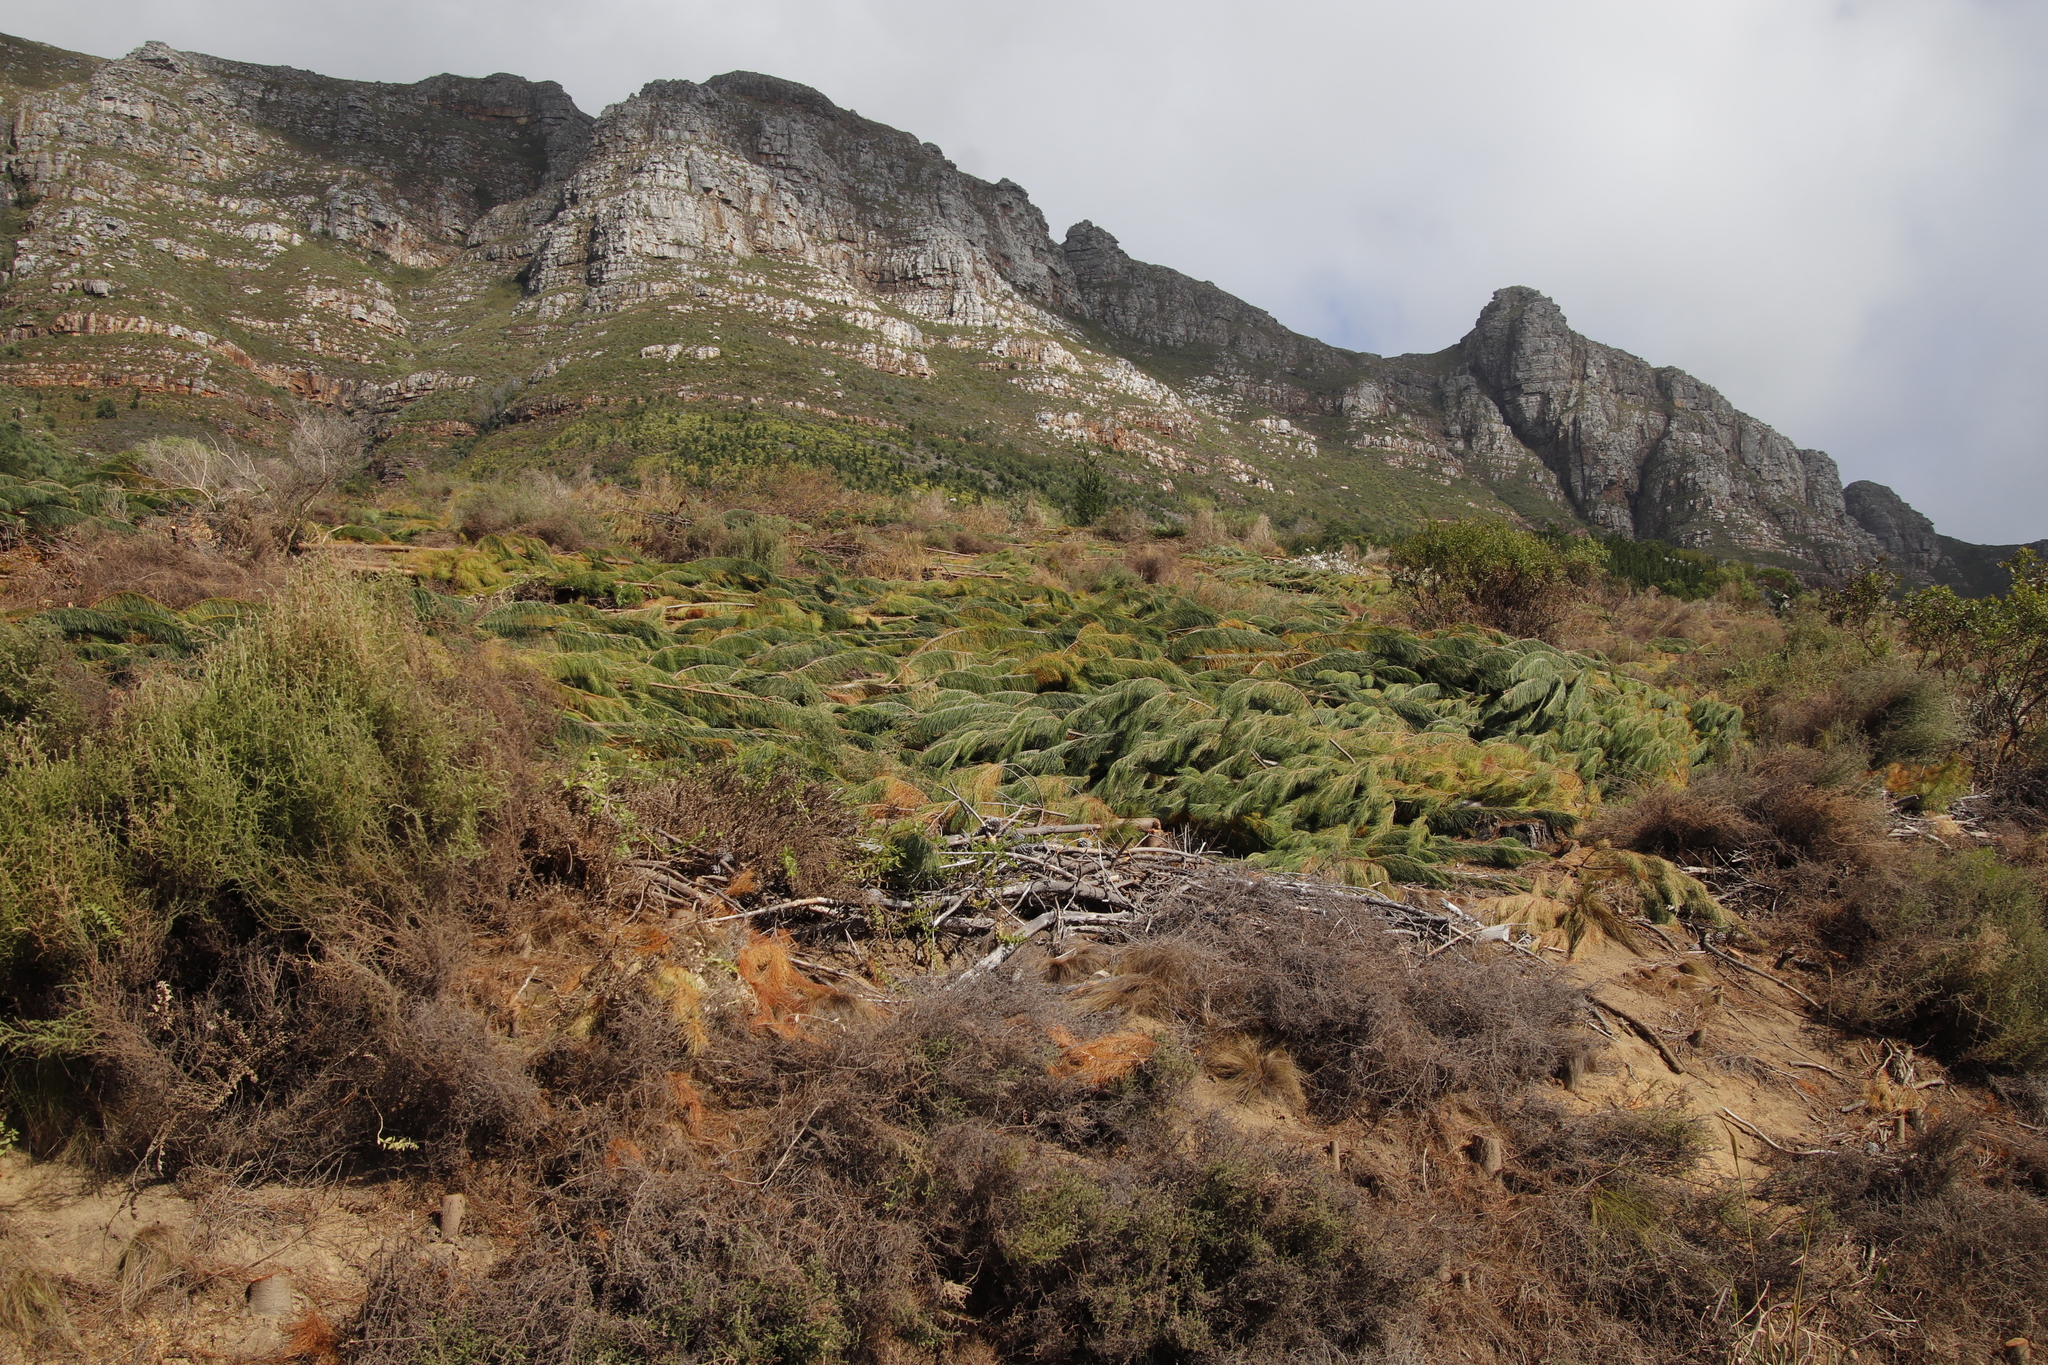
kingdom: Plantae
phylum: Tracheophyta
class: Pinopsida
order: Pinales
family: Pinaceae
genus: Pinus
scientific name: Pinus radiata
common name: Monterey pine
